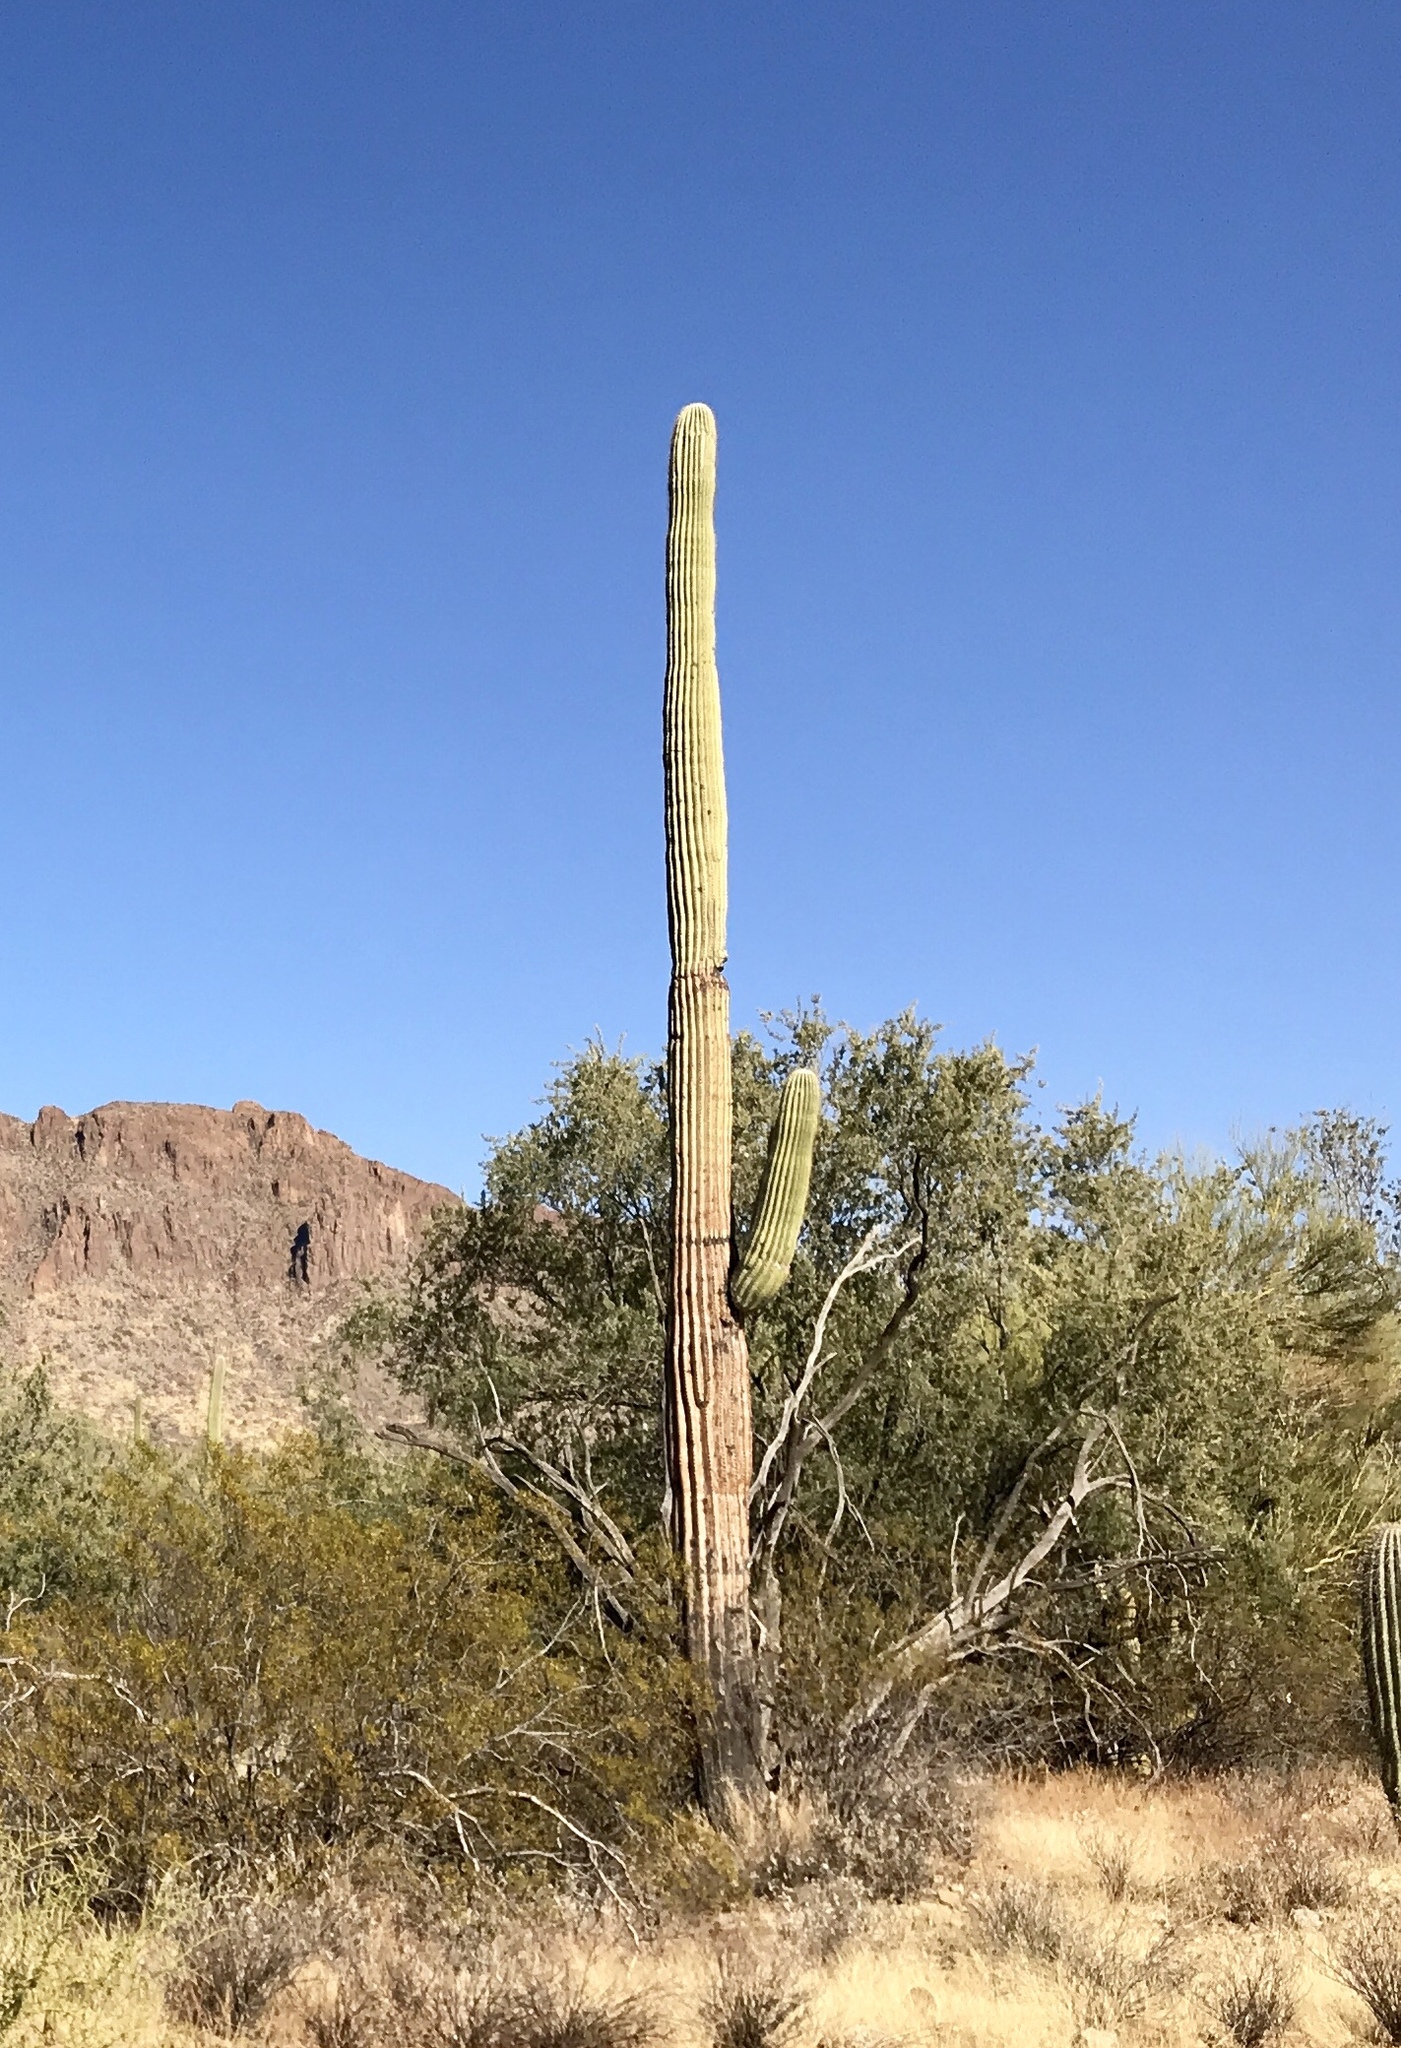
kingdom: Plantae
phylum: Tracheophyta
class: Magnoliopsida
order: Caryophyllales
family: Cactaceae
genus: Carnegiea
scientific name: Carnegiea gigantea
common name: Saguaro
